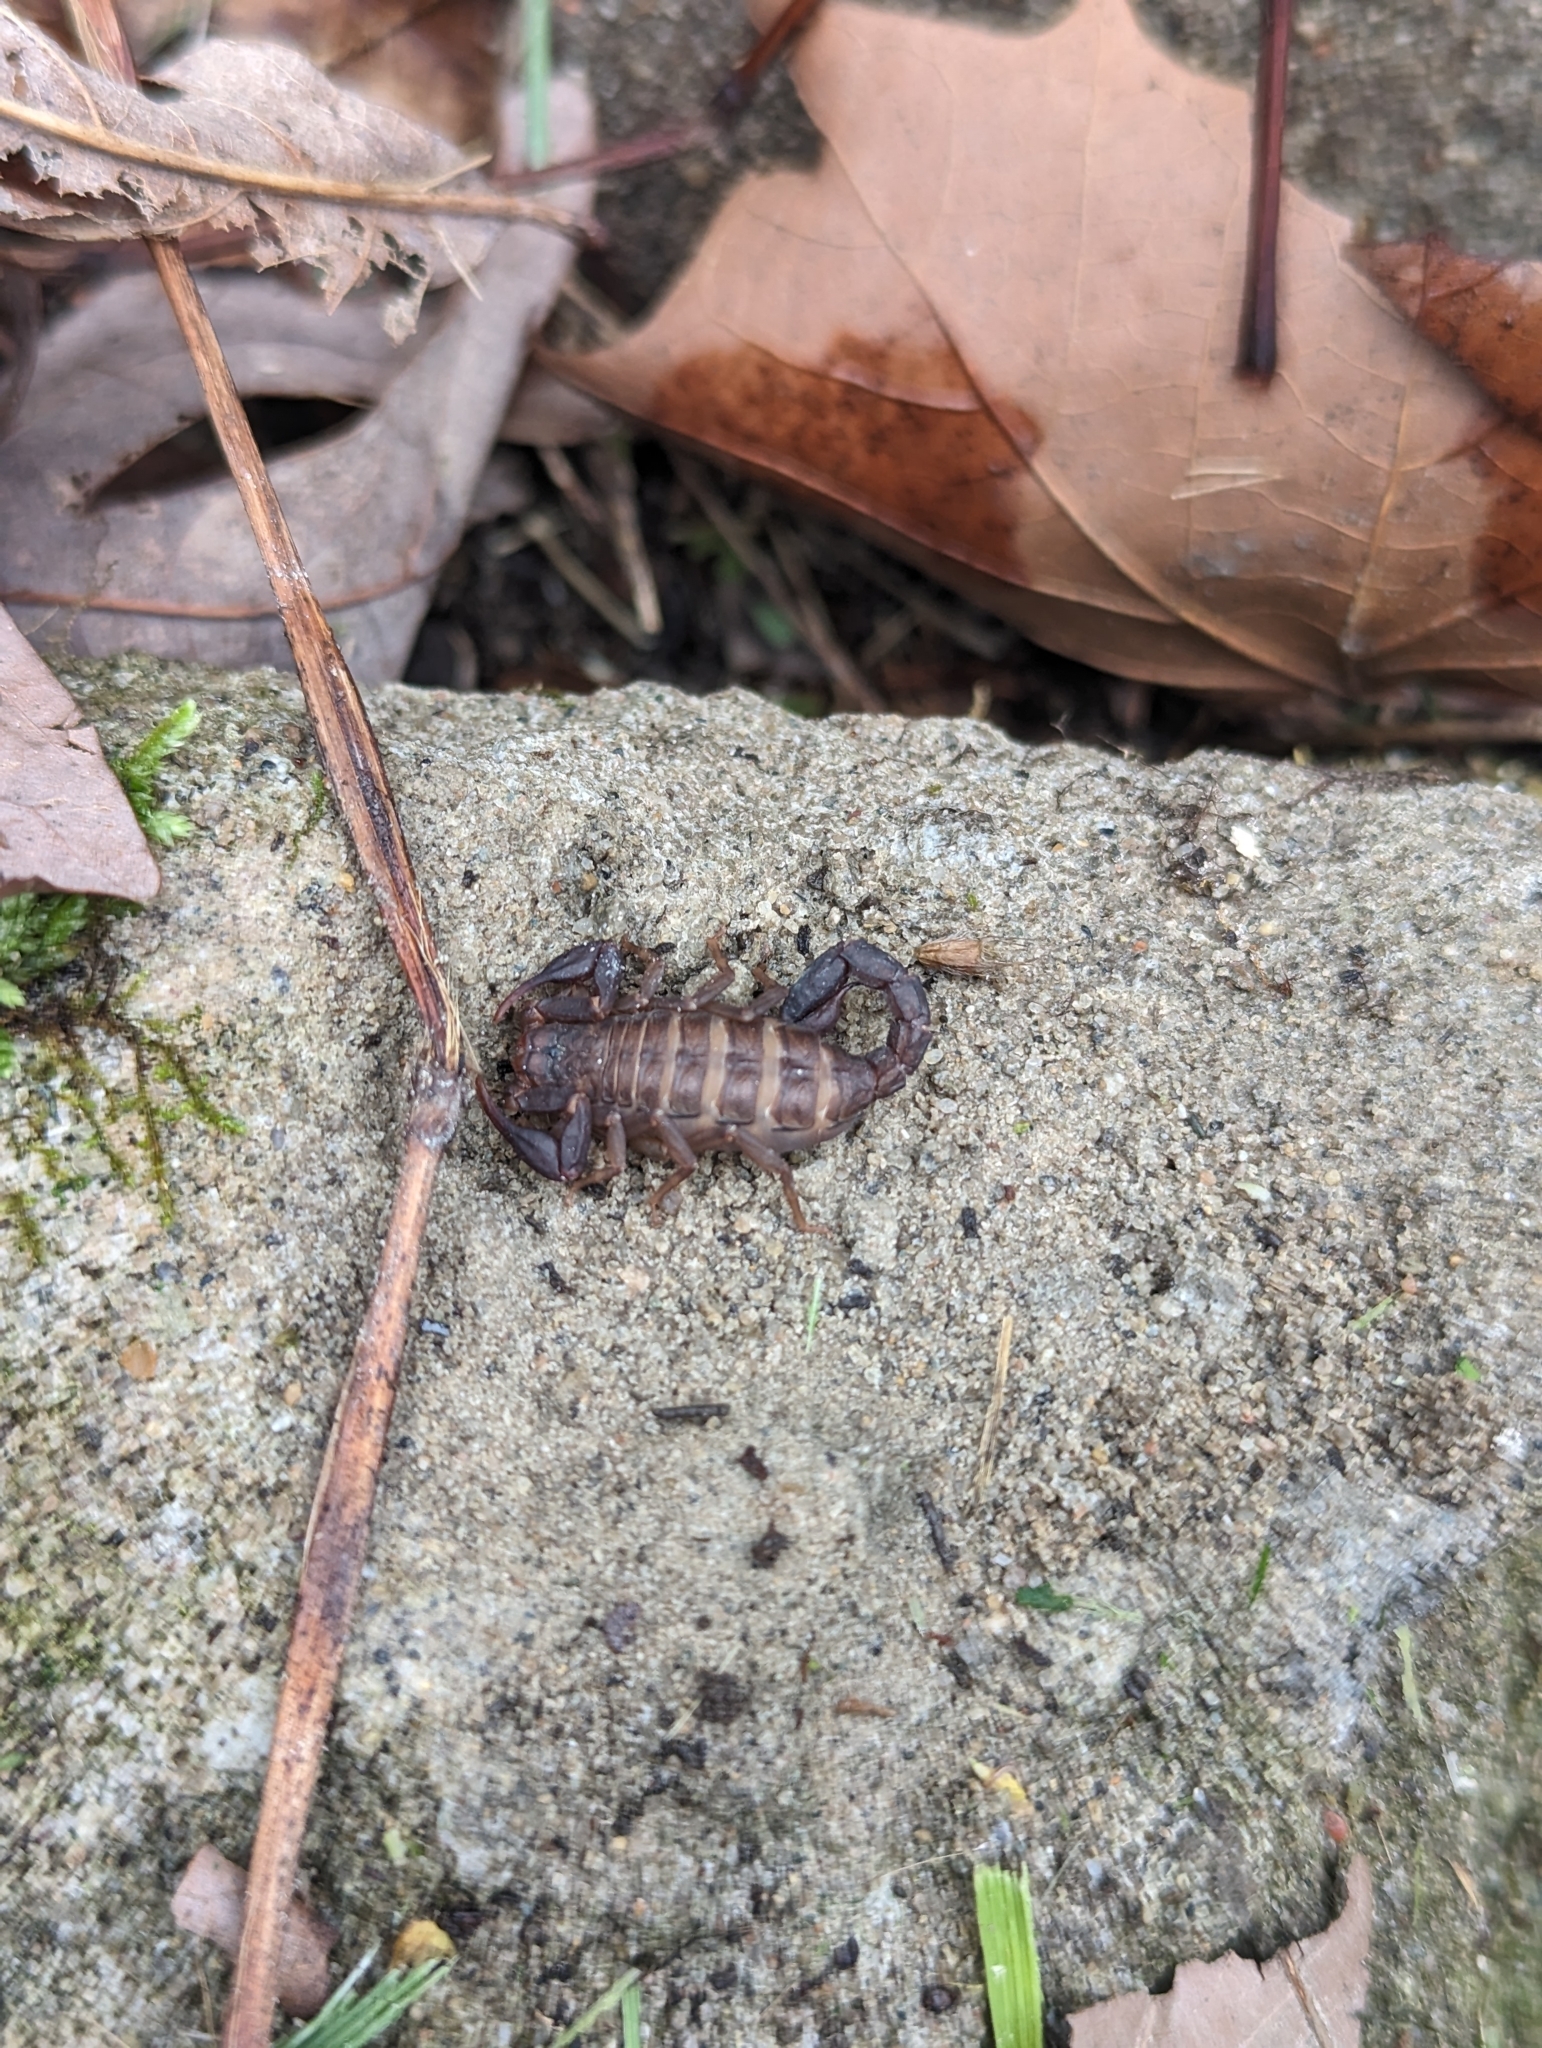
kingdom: Animalia
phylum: Arthropoda
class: Arachnida
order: Scorpiones
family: Vaejovidae
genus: Vaejovis
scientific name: Vaejovis carolinianus
